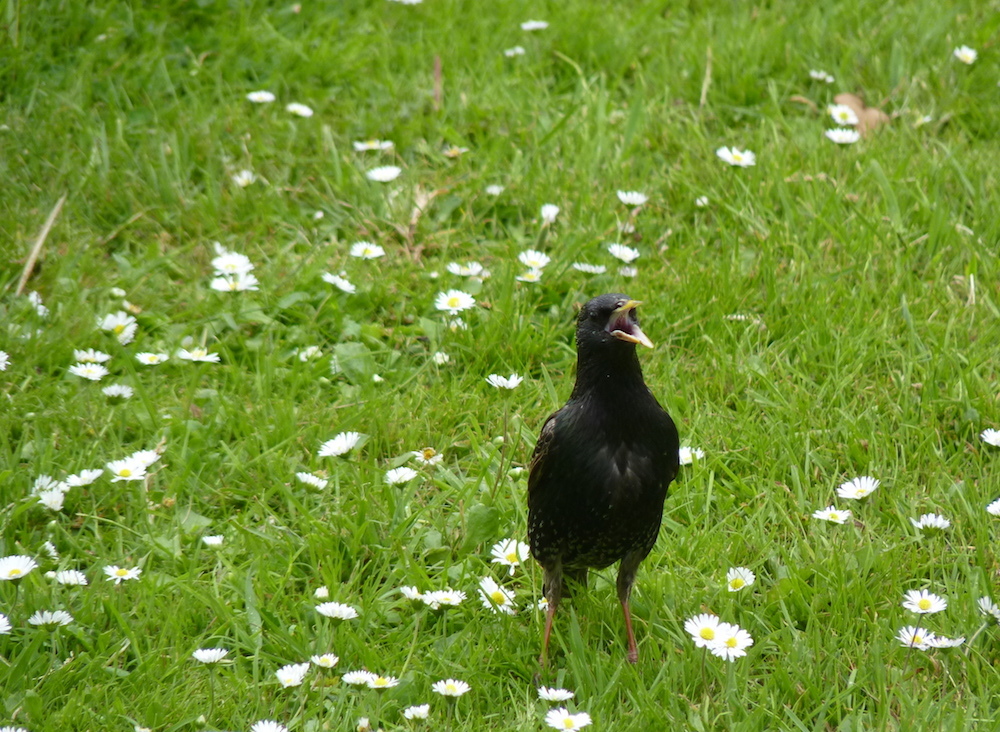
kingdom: Animalia
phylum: Chordata
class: Aves
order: Passeriformes
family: Sturnidae
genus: Sturnus
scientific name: Sturnus vulgaris
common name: Common starling
